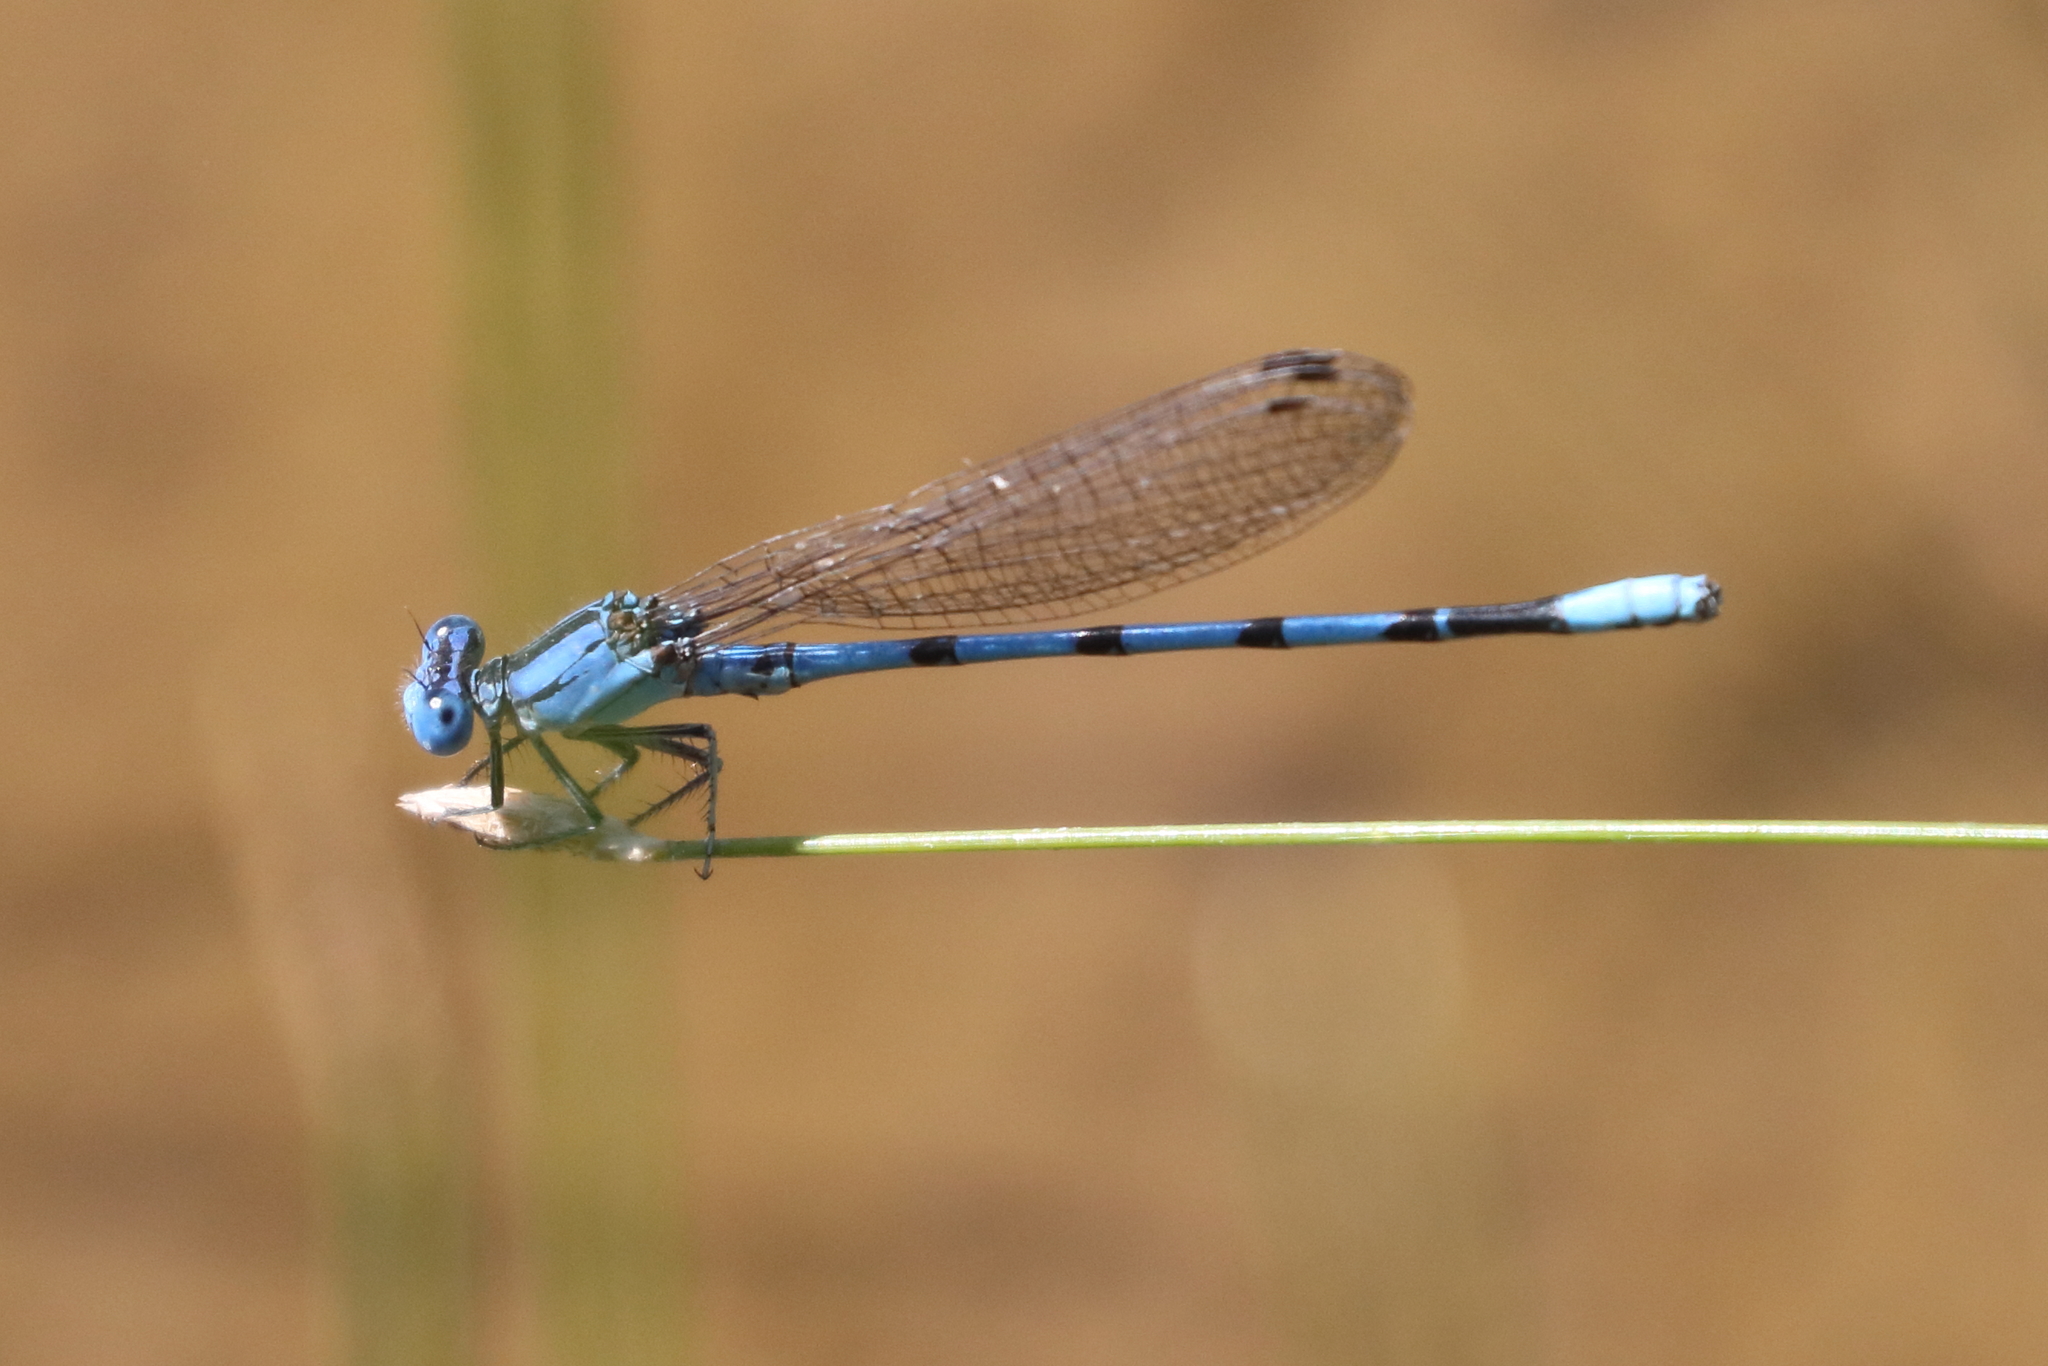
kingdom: Animalia
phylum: Arthropoda
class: Insecta
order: Odonata
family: Coenagrionidae
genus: Argia
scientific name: Argia nahuana
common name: Aztec dancer
